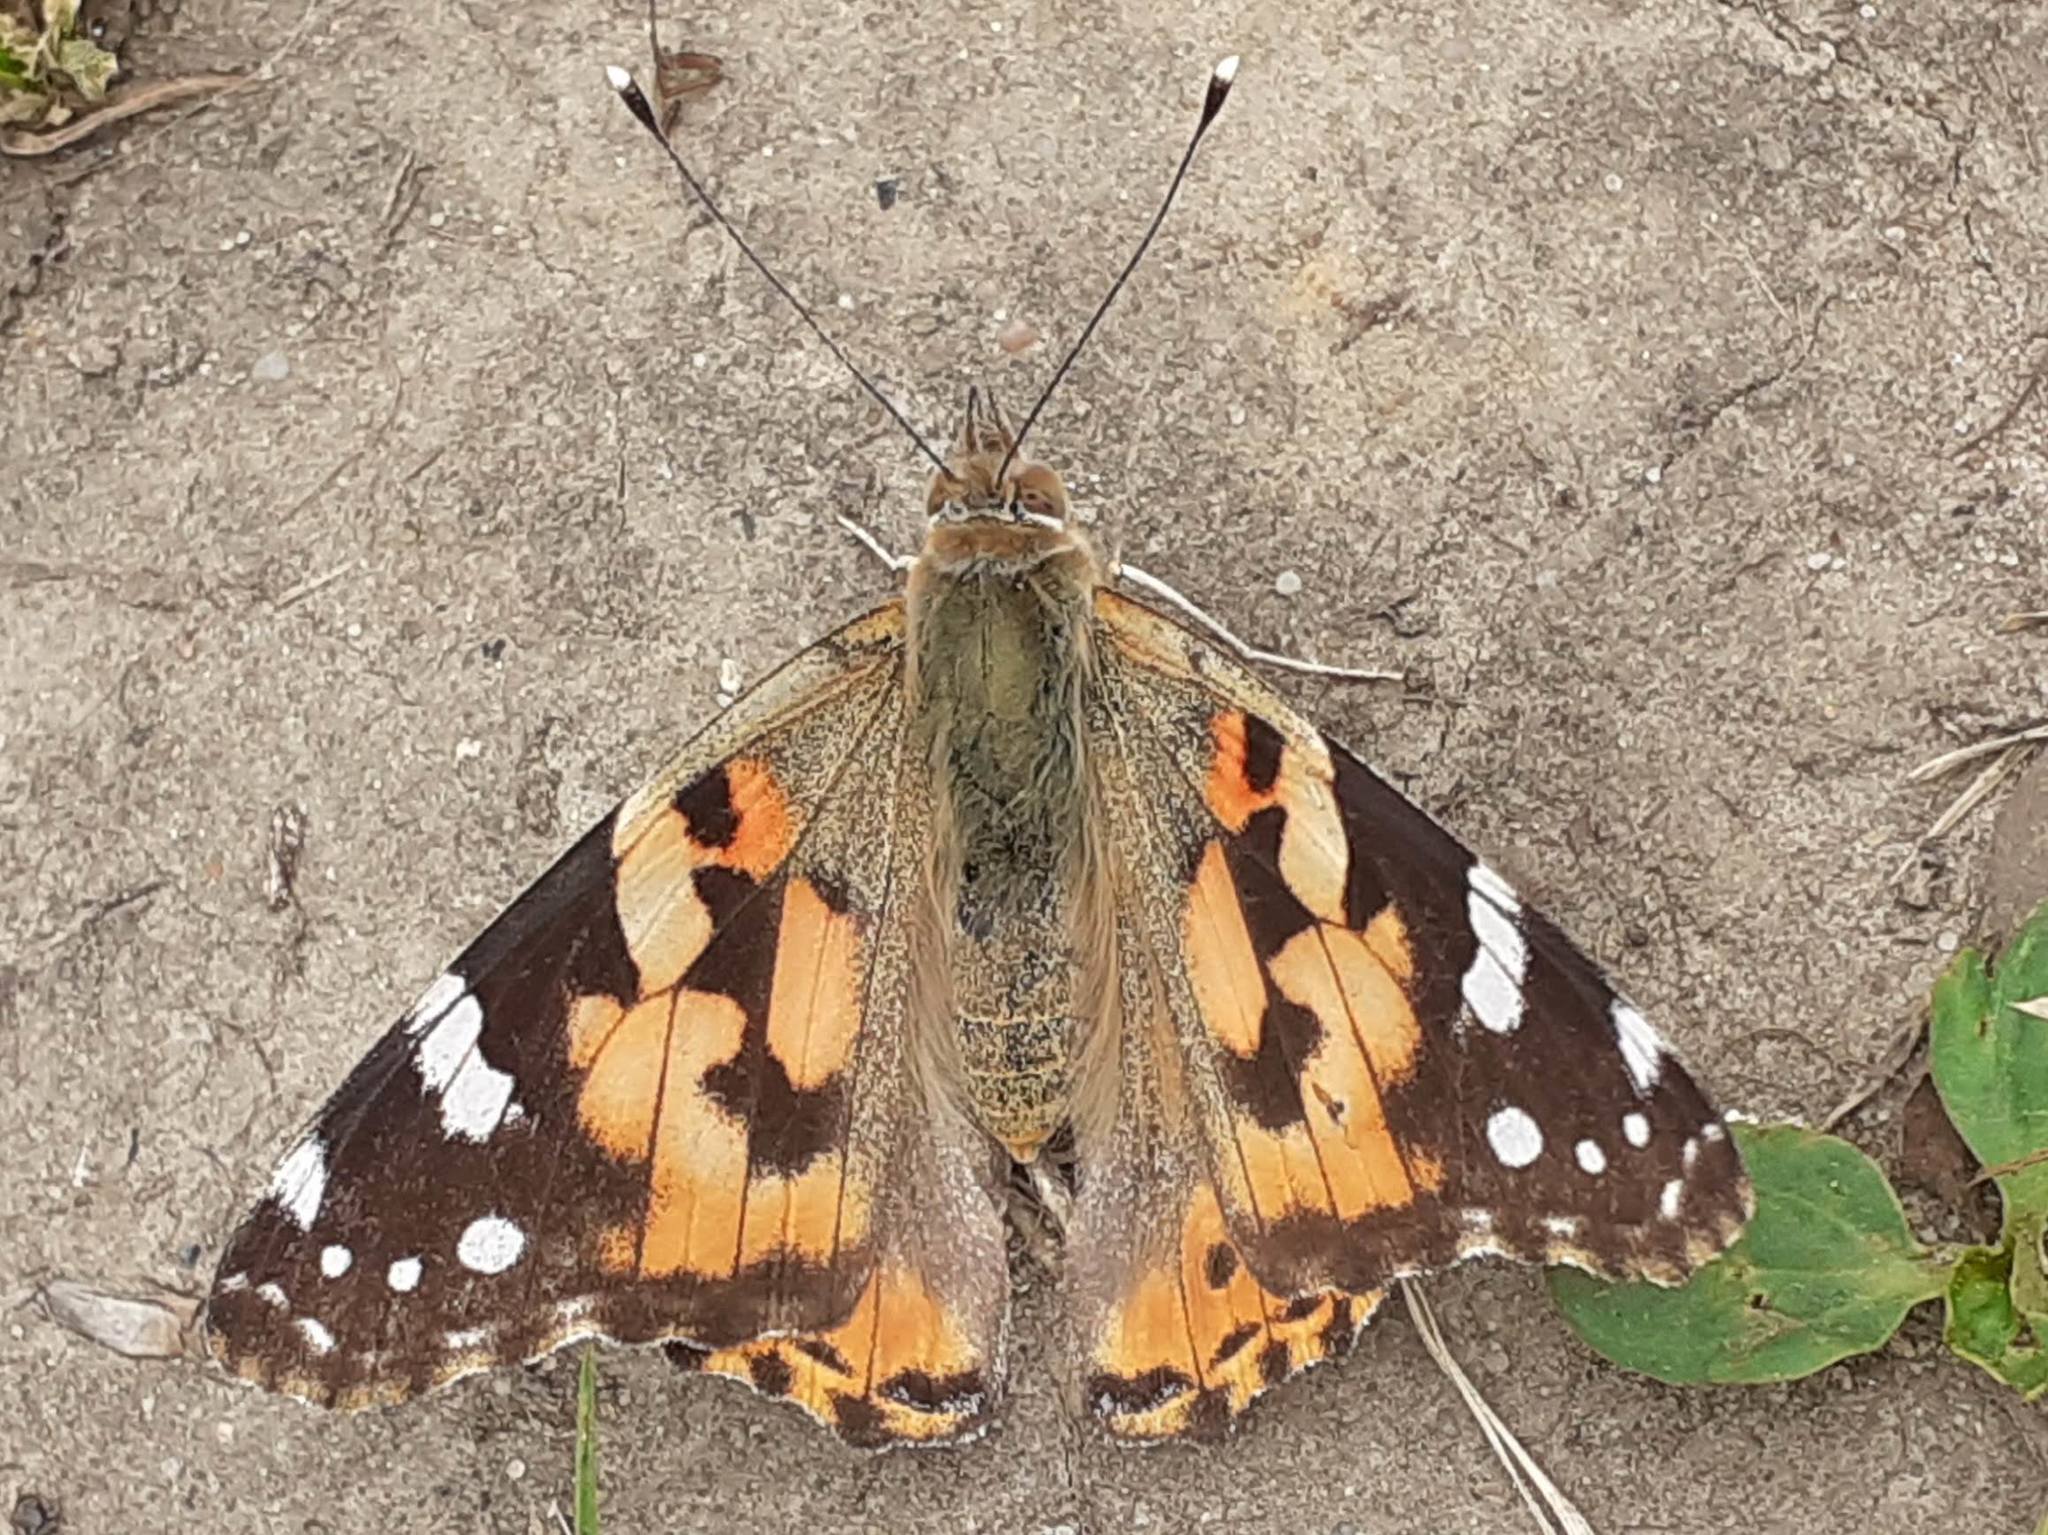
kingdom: Animalia
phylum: Arthropoda
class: Insecta
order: Lepidoptera
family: Nymphalidae
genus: Vanessa
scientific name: Vanessa cardui
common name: Painted lady
